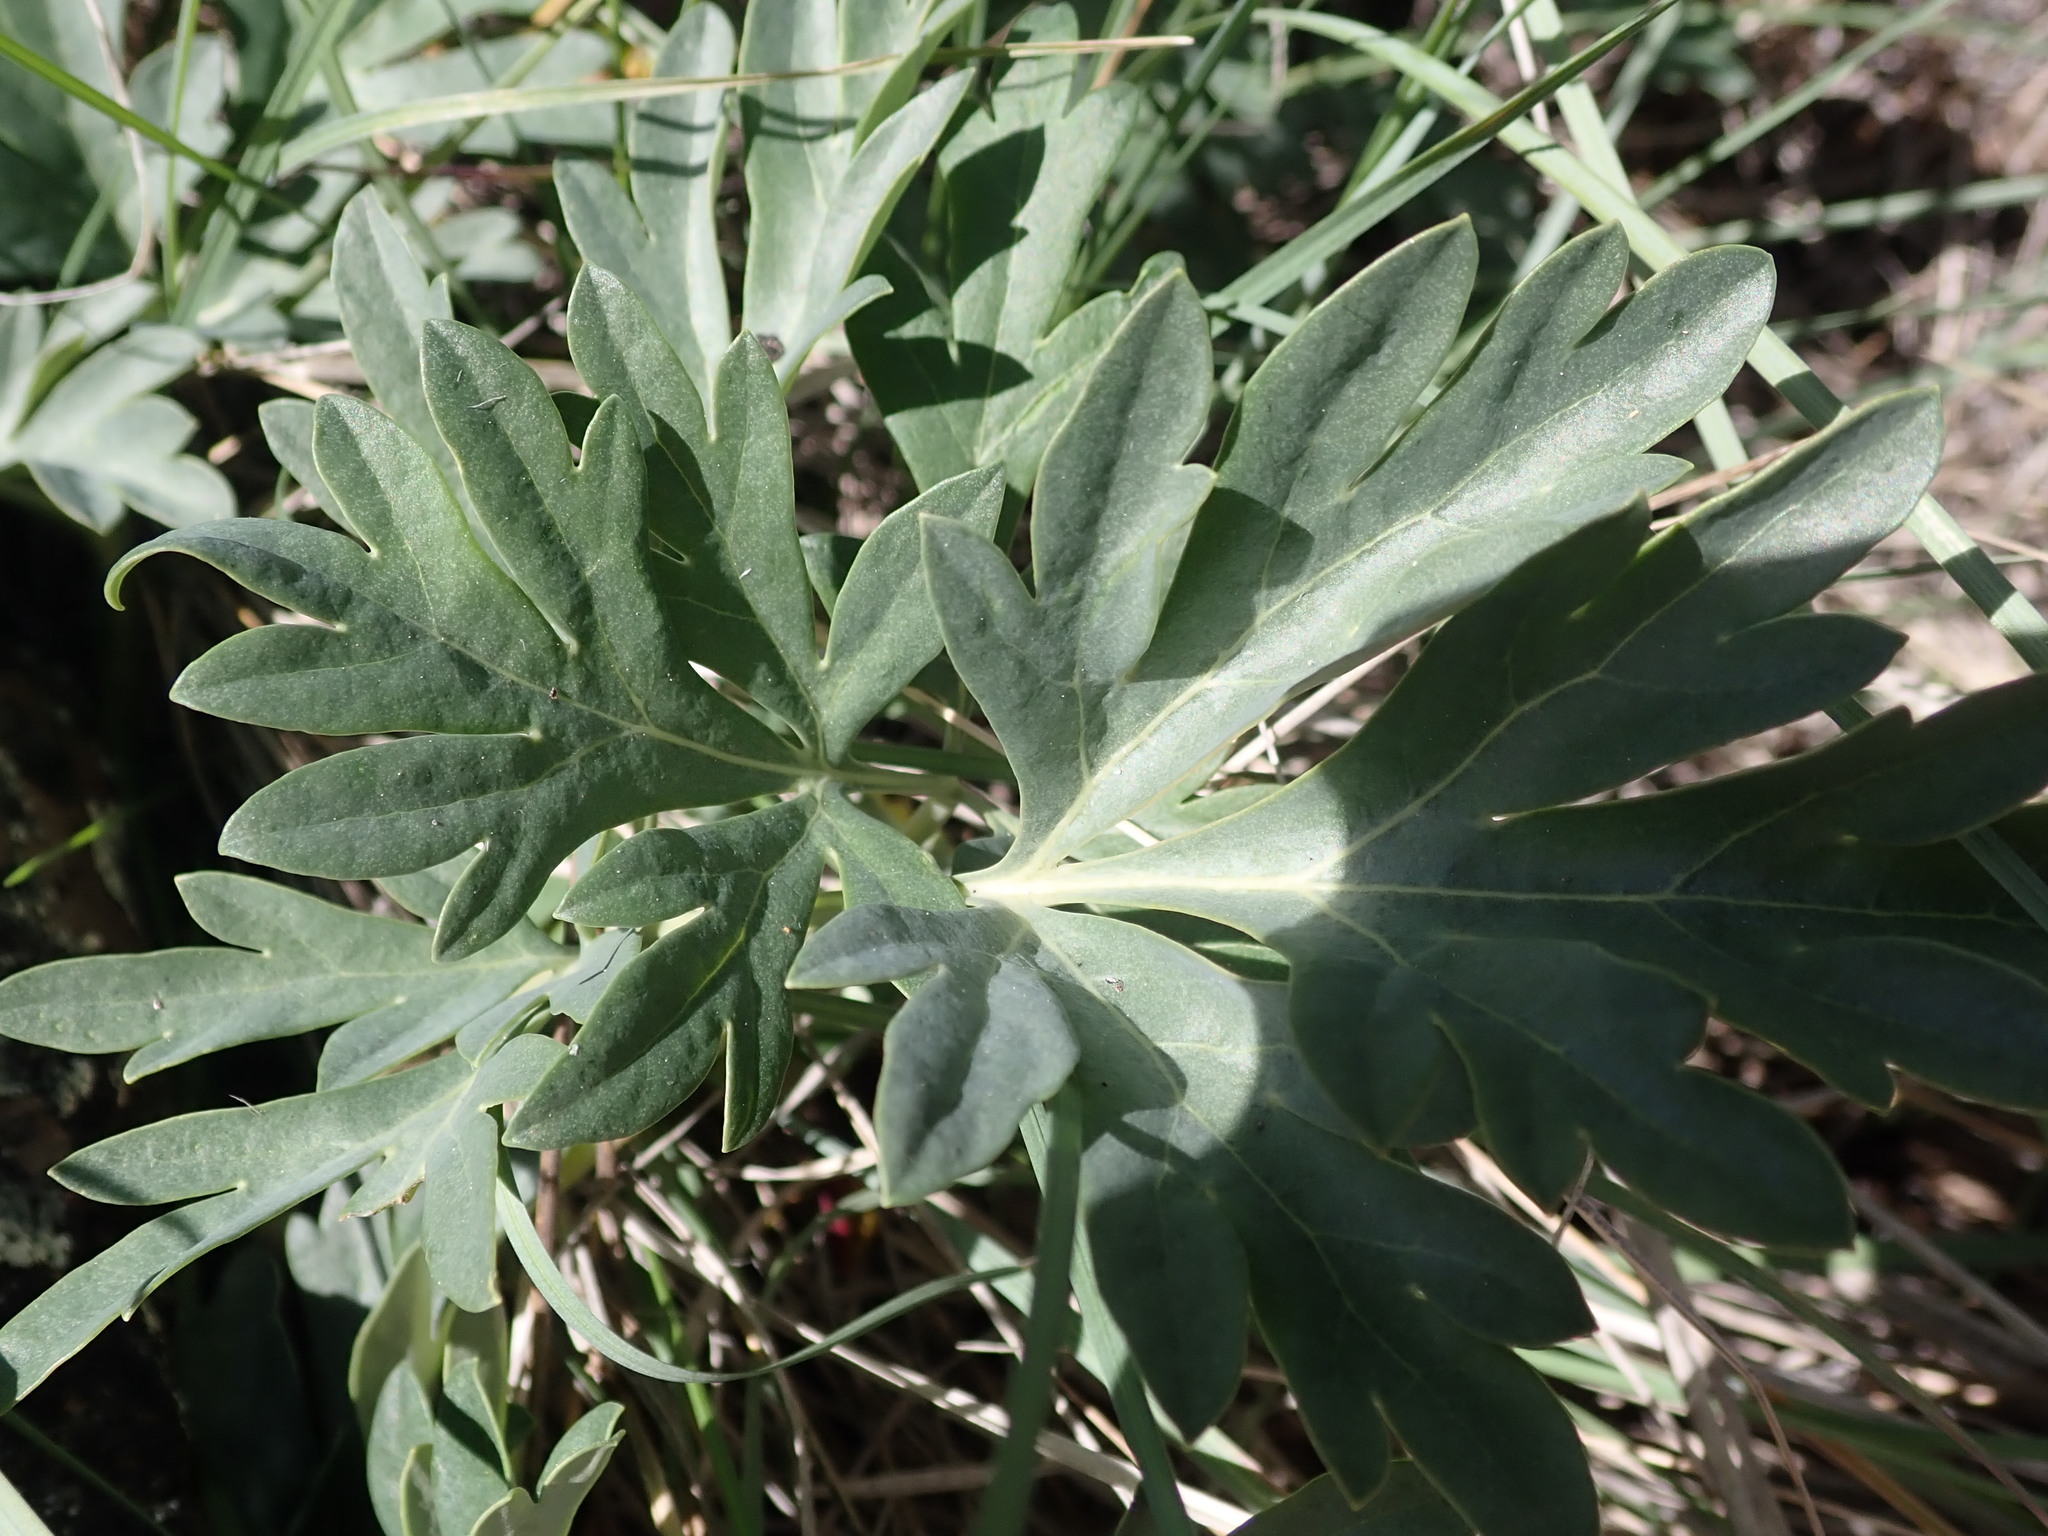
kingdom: Plantae
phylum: Tracheophyta
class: Magnoliopsida
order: Saxifragales
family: Paeoniaceae
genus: Paeonia
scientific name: Paeonia brownii
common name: Brown's peony
